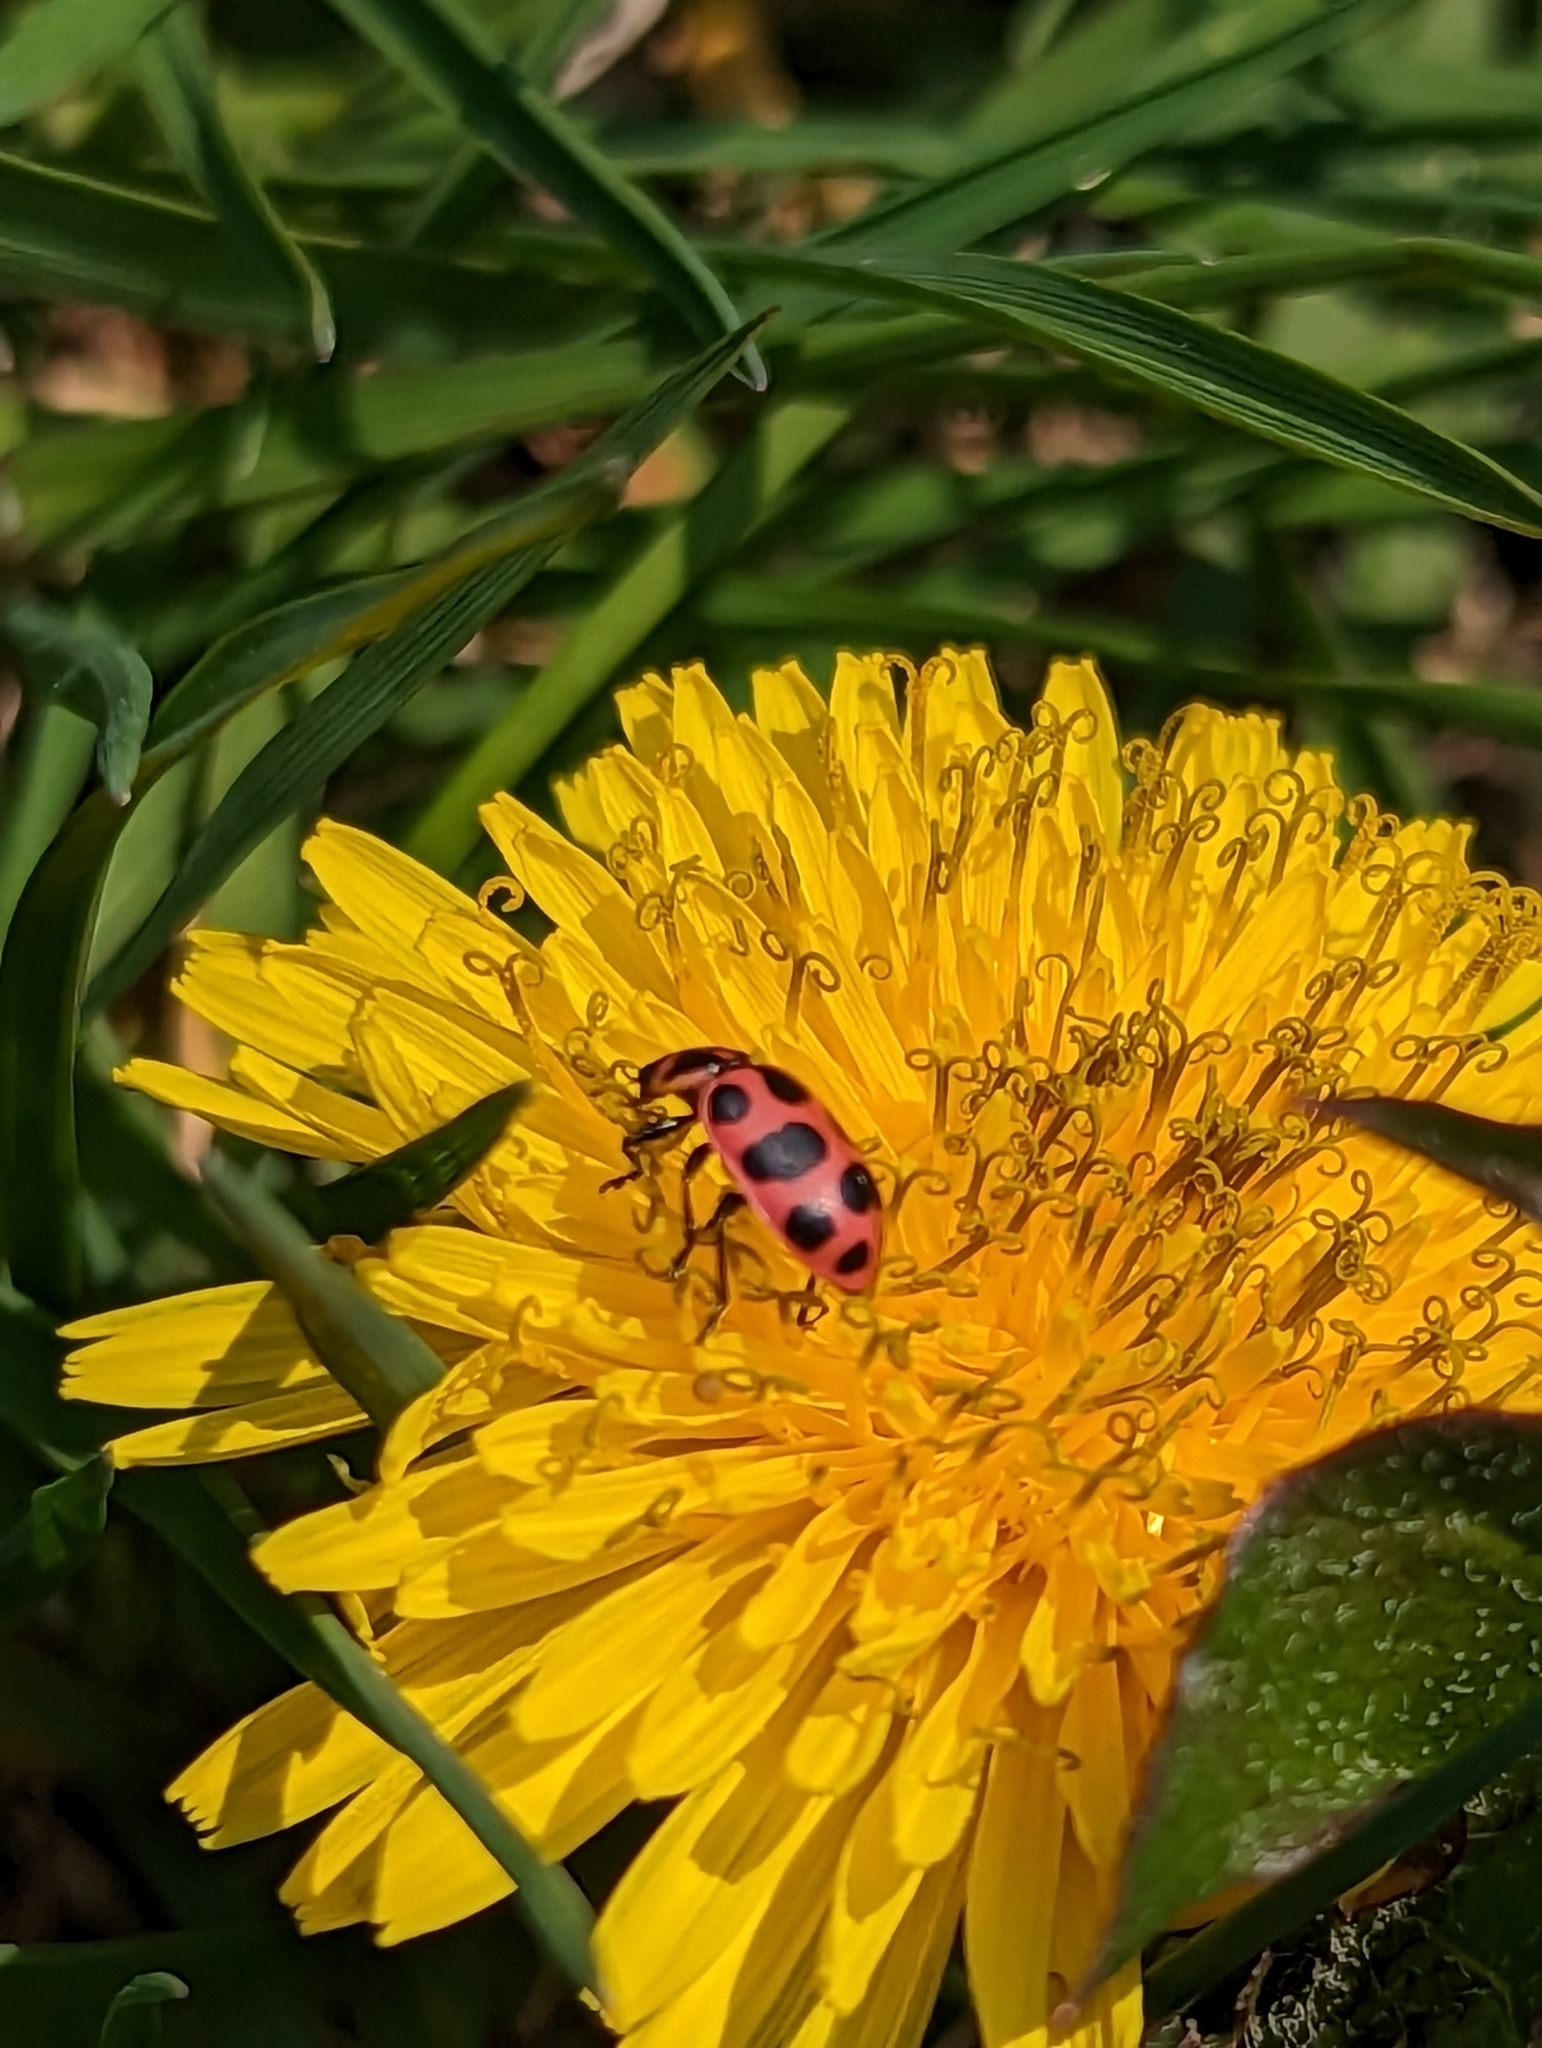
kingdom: Animalia
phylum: Arthropoda
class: Insecta
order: Coleoptera
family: Coccinellidae
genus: Coleomegilla
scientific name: Coleomegilla maculata
